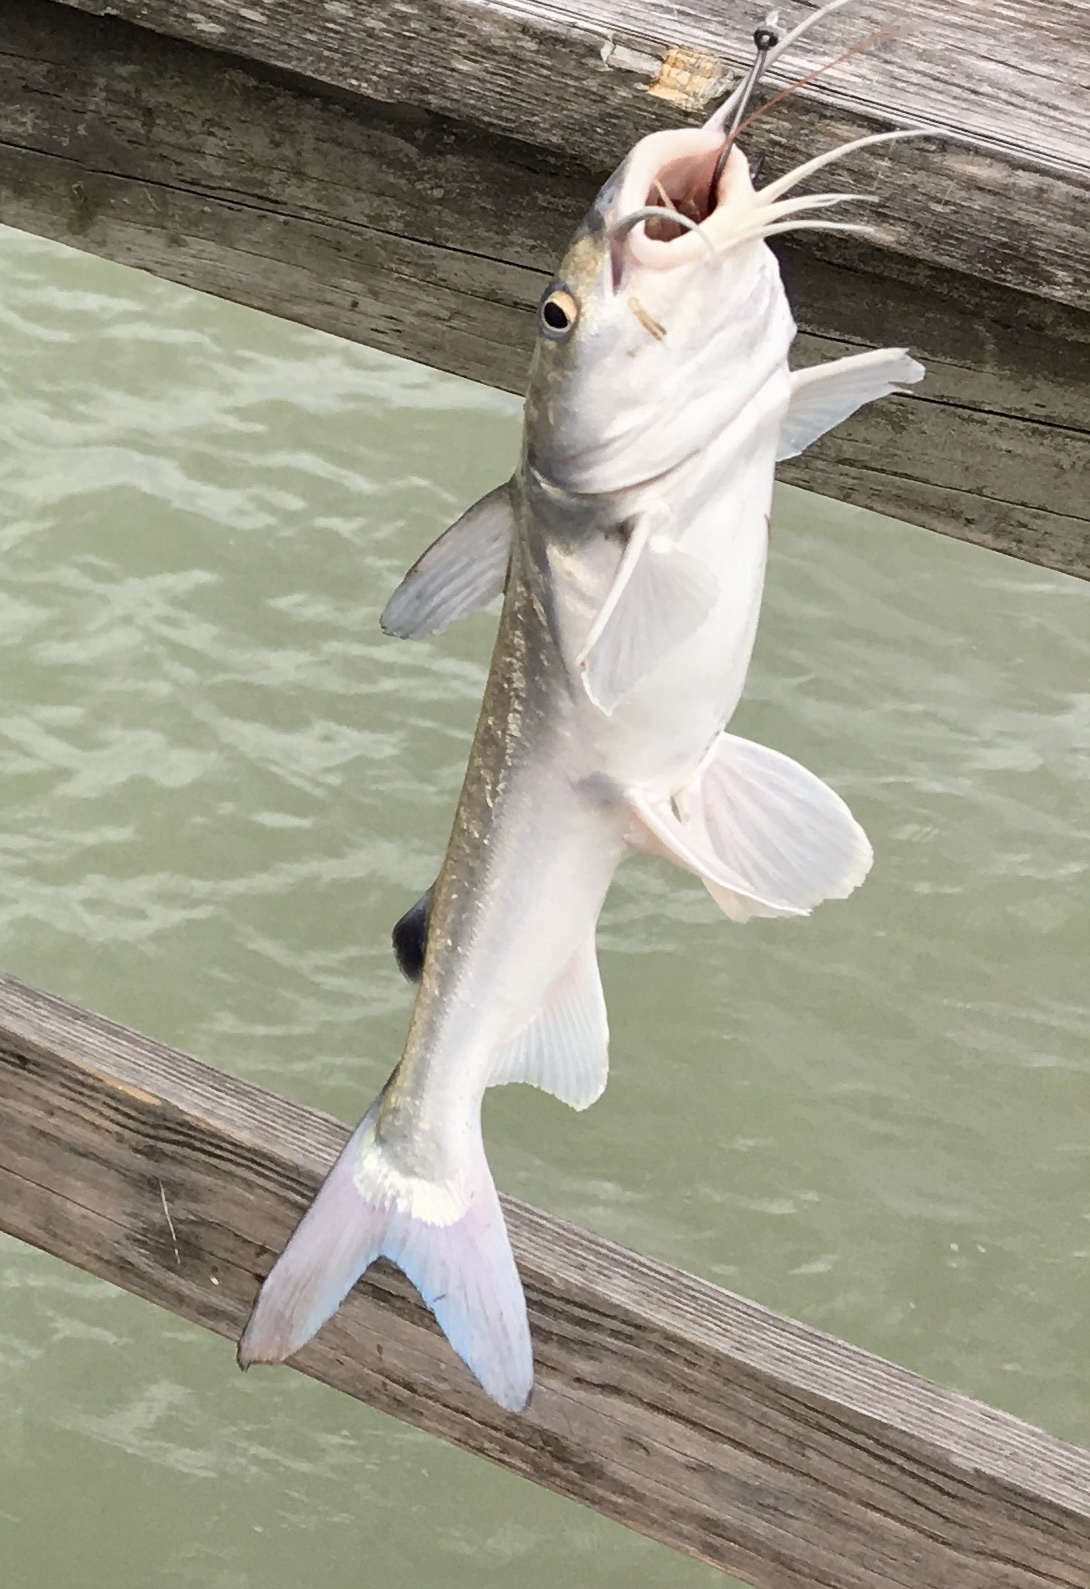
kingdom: Animalia
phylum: Chordata
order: Siluriformes
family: Ariidae
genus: Ariopsis
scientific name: Ariopsis felis
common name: Hardhead catfish
